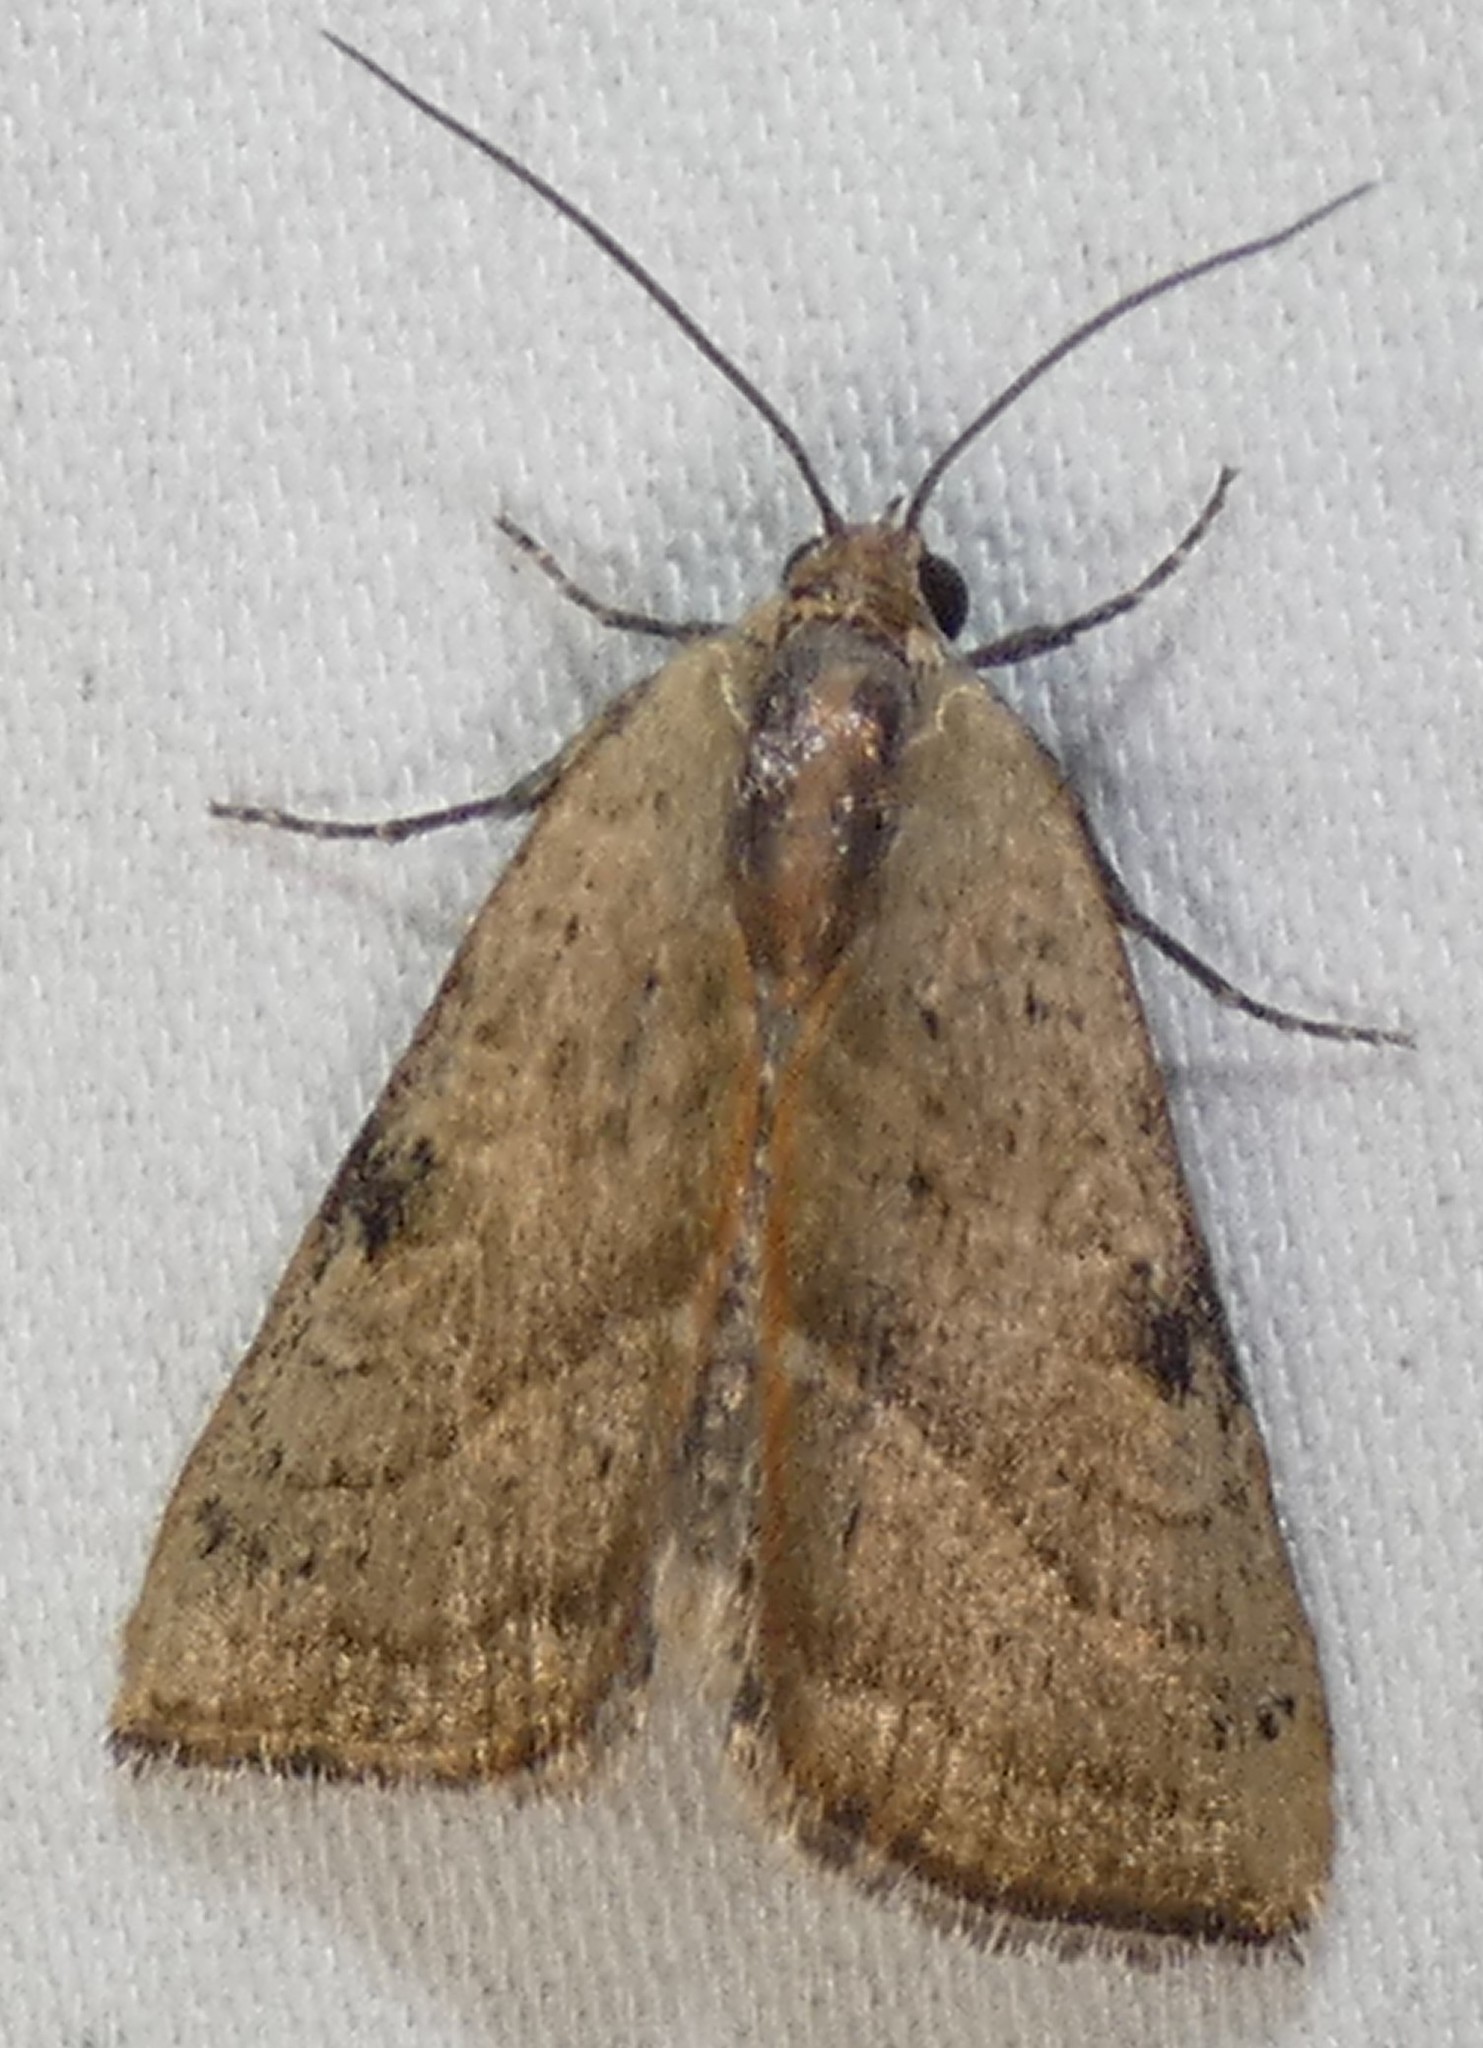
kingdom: Animalia
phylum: Arthropoda
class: Insecta
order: Lepidoptera
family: Noctuidae
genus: Galgula
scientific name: Galgula partita
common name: Wedgeling
